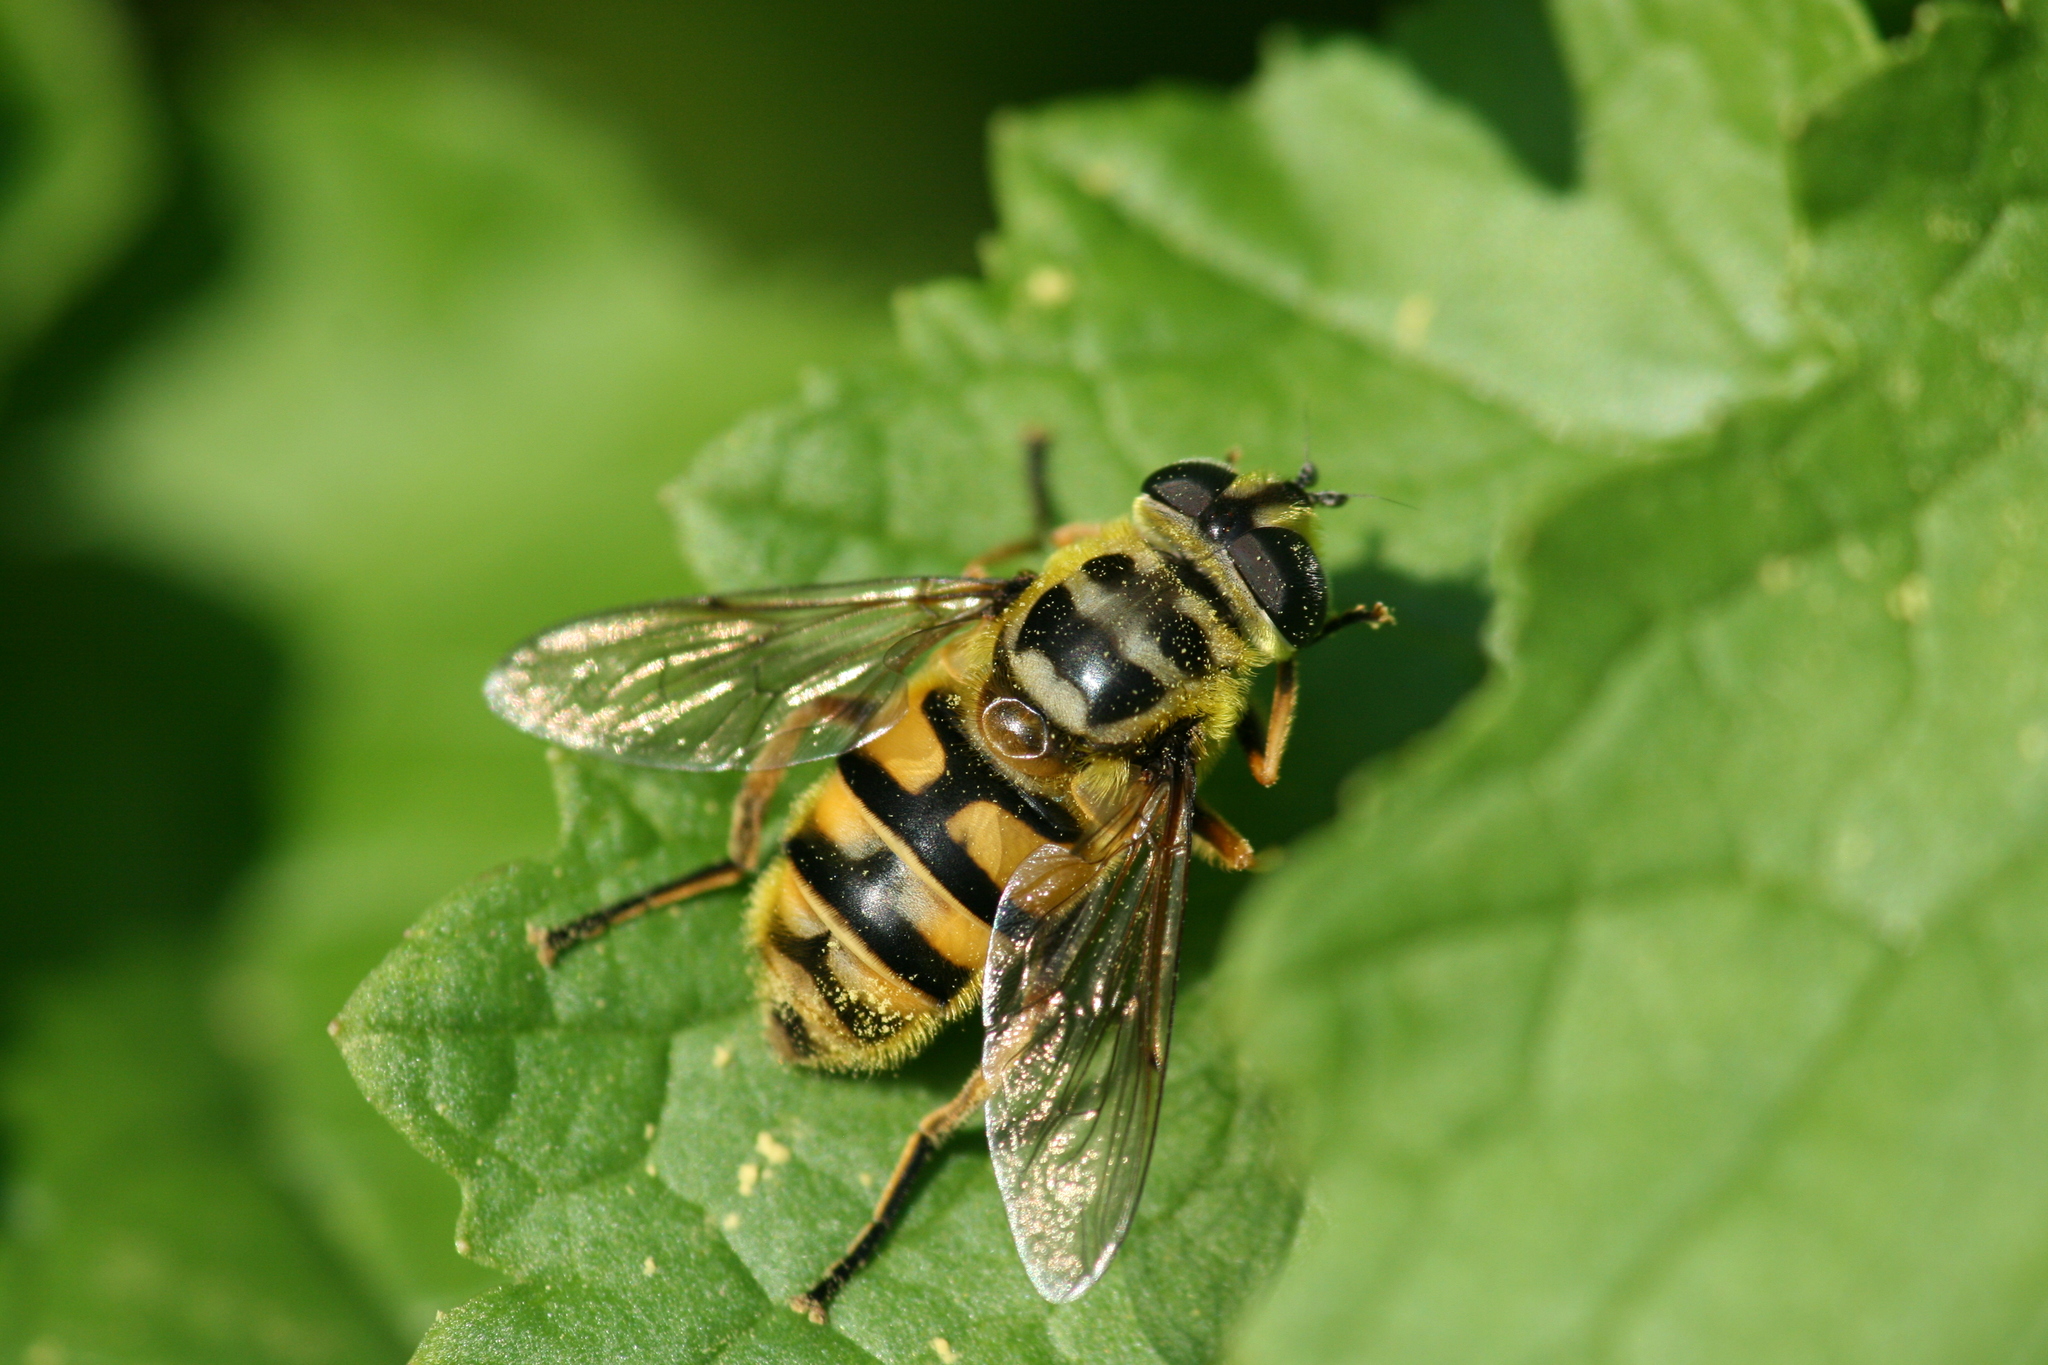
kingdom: Animalia
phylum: Arthropoda
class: Insecta
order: Diptera
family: Syrphidae
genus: Myathropa
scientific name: Myathropa florea
